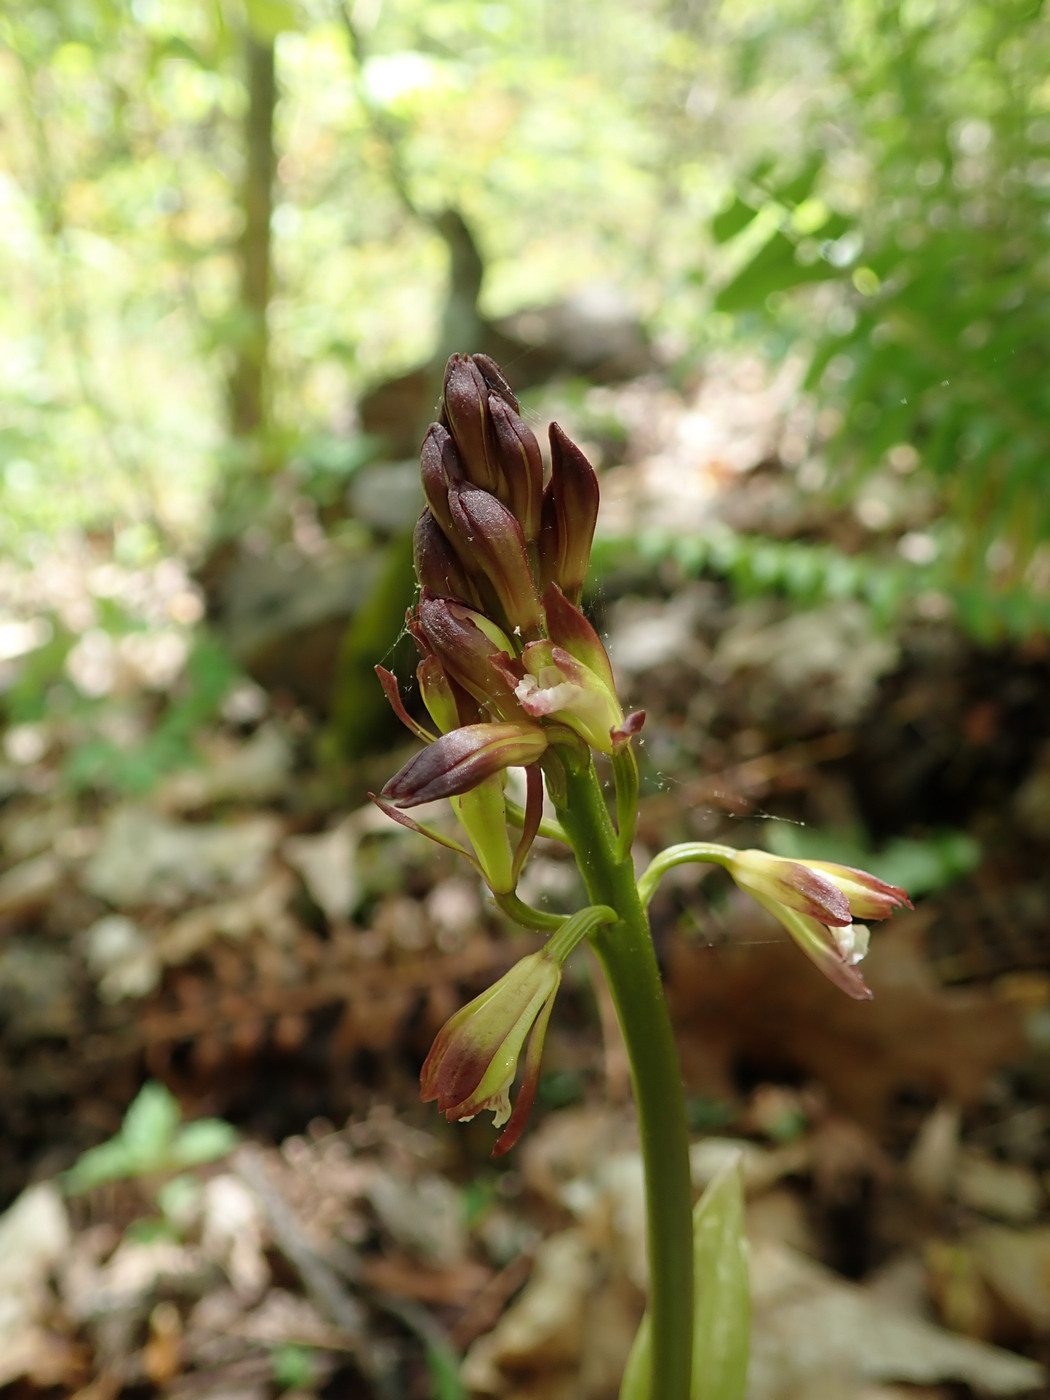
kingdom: Plantae
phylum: Tracheophyta
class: Liliopsida
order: Asparagales
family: Orchidaceae
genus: Aplectrum
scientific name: Aplectrum hyemale
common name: Adam-and-eve
